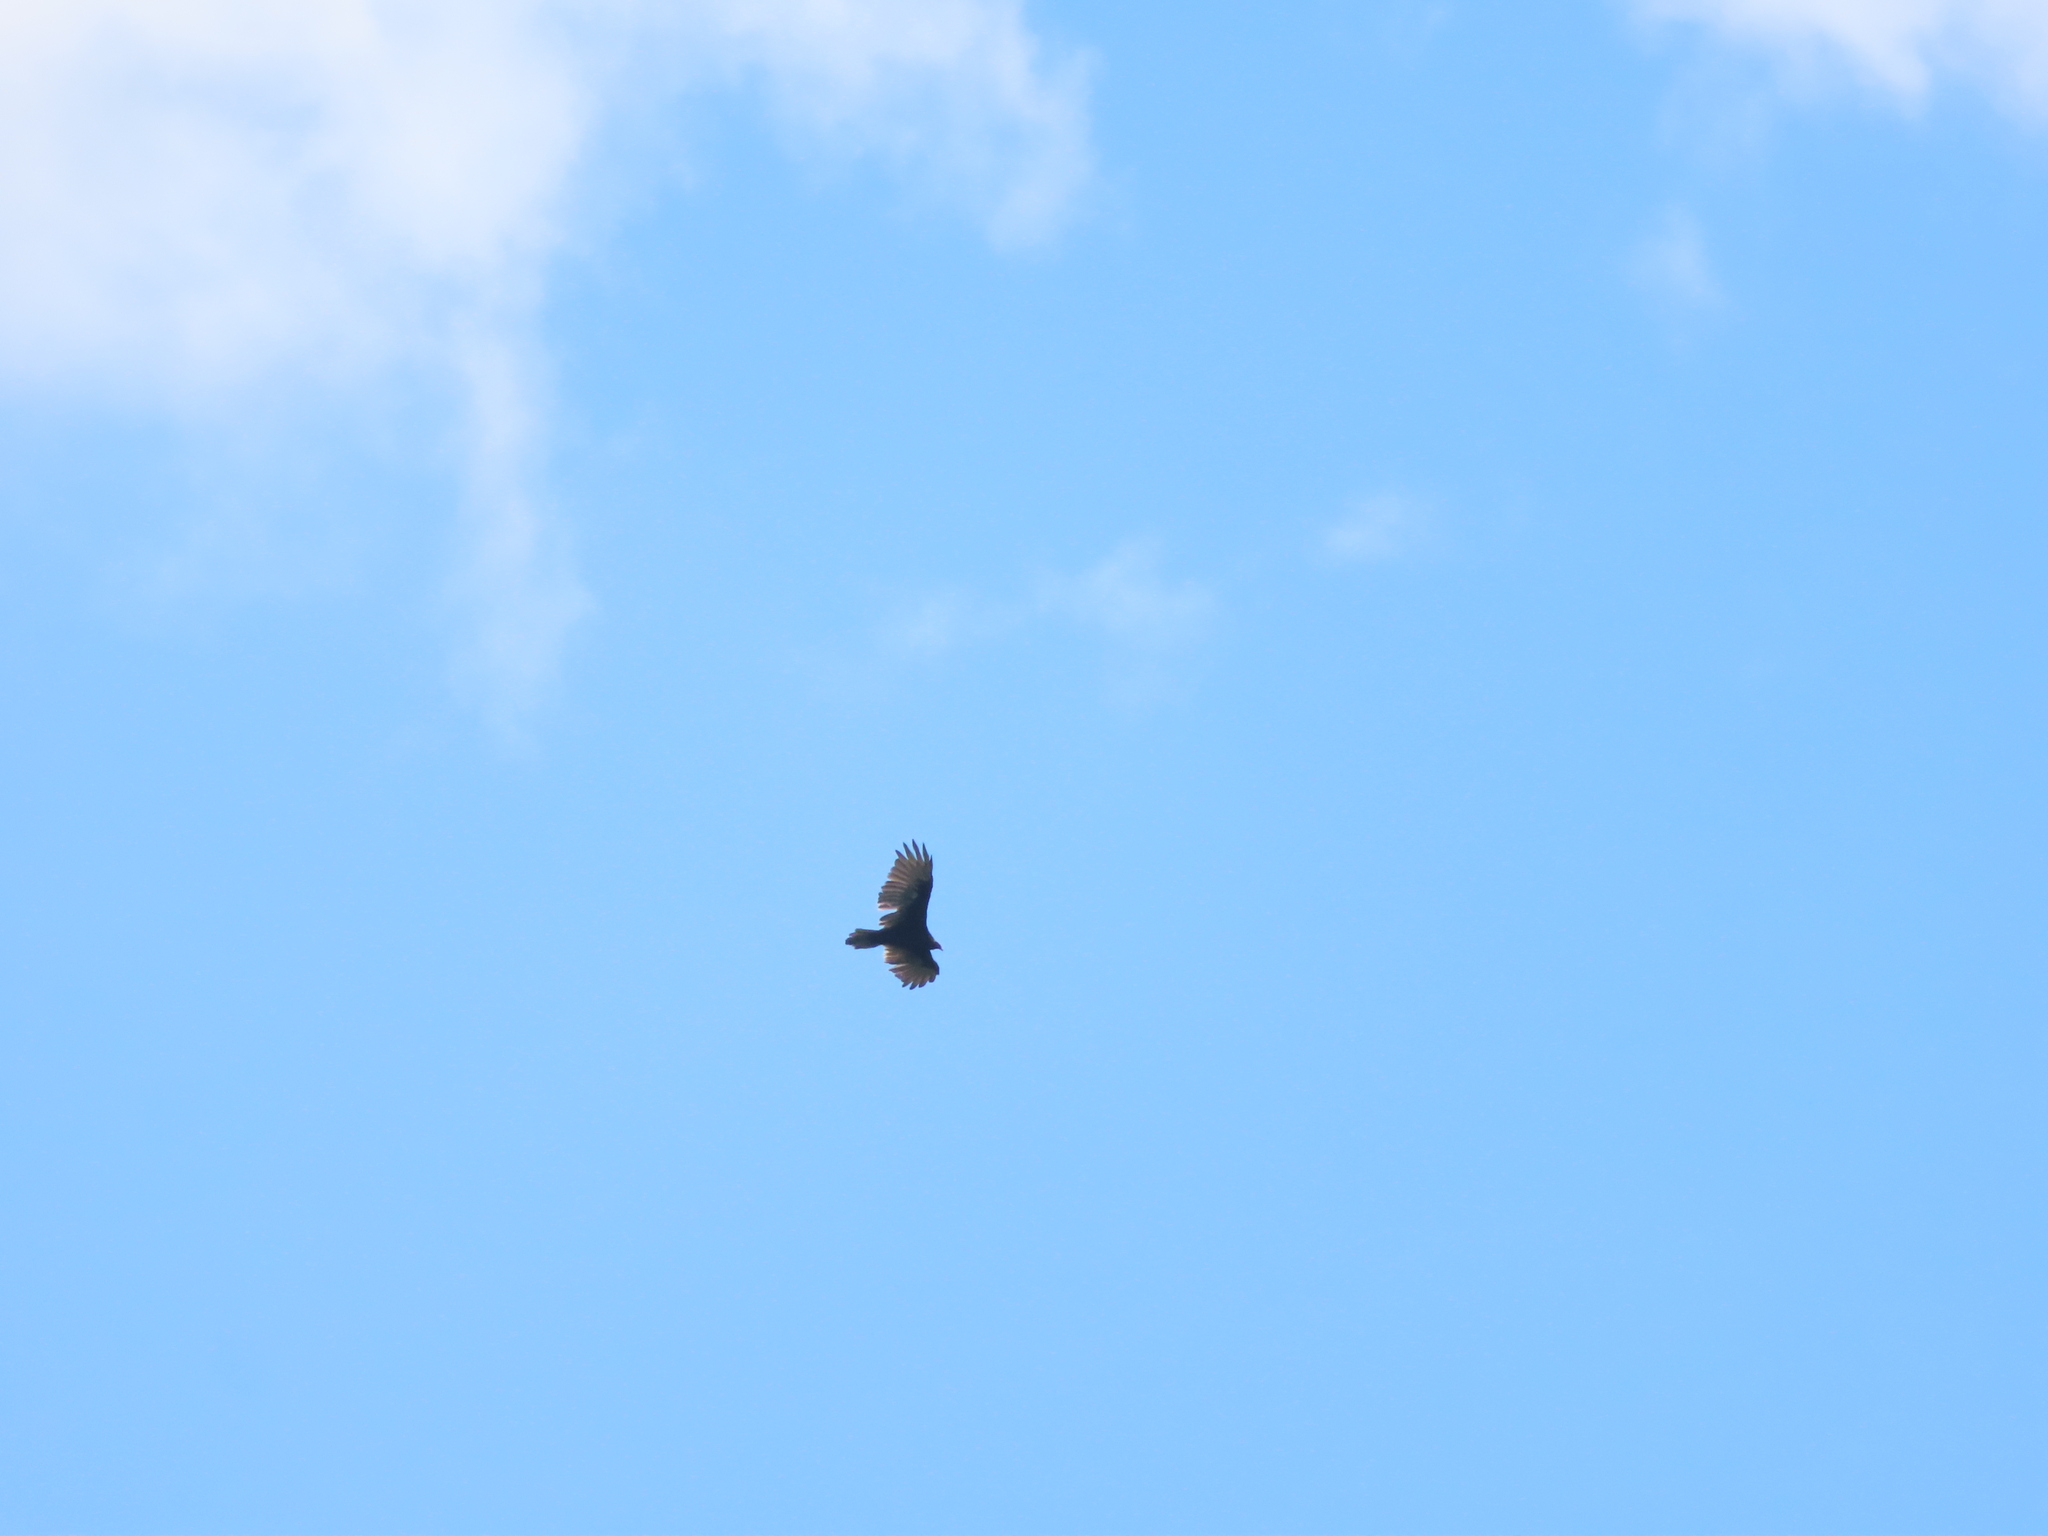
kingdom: Animalia
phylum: Chordata
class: Aves
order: Accipitriformes
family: Cathartidae
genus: Cathartes
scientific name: Cathartes aura
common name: Turkey vulture
